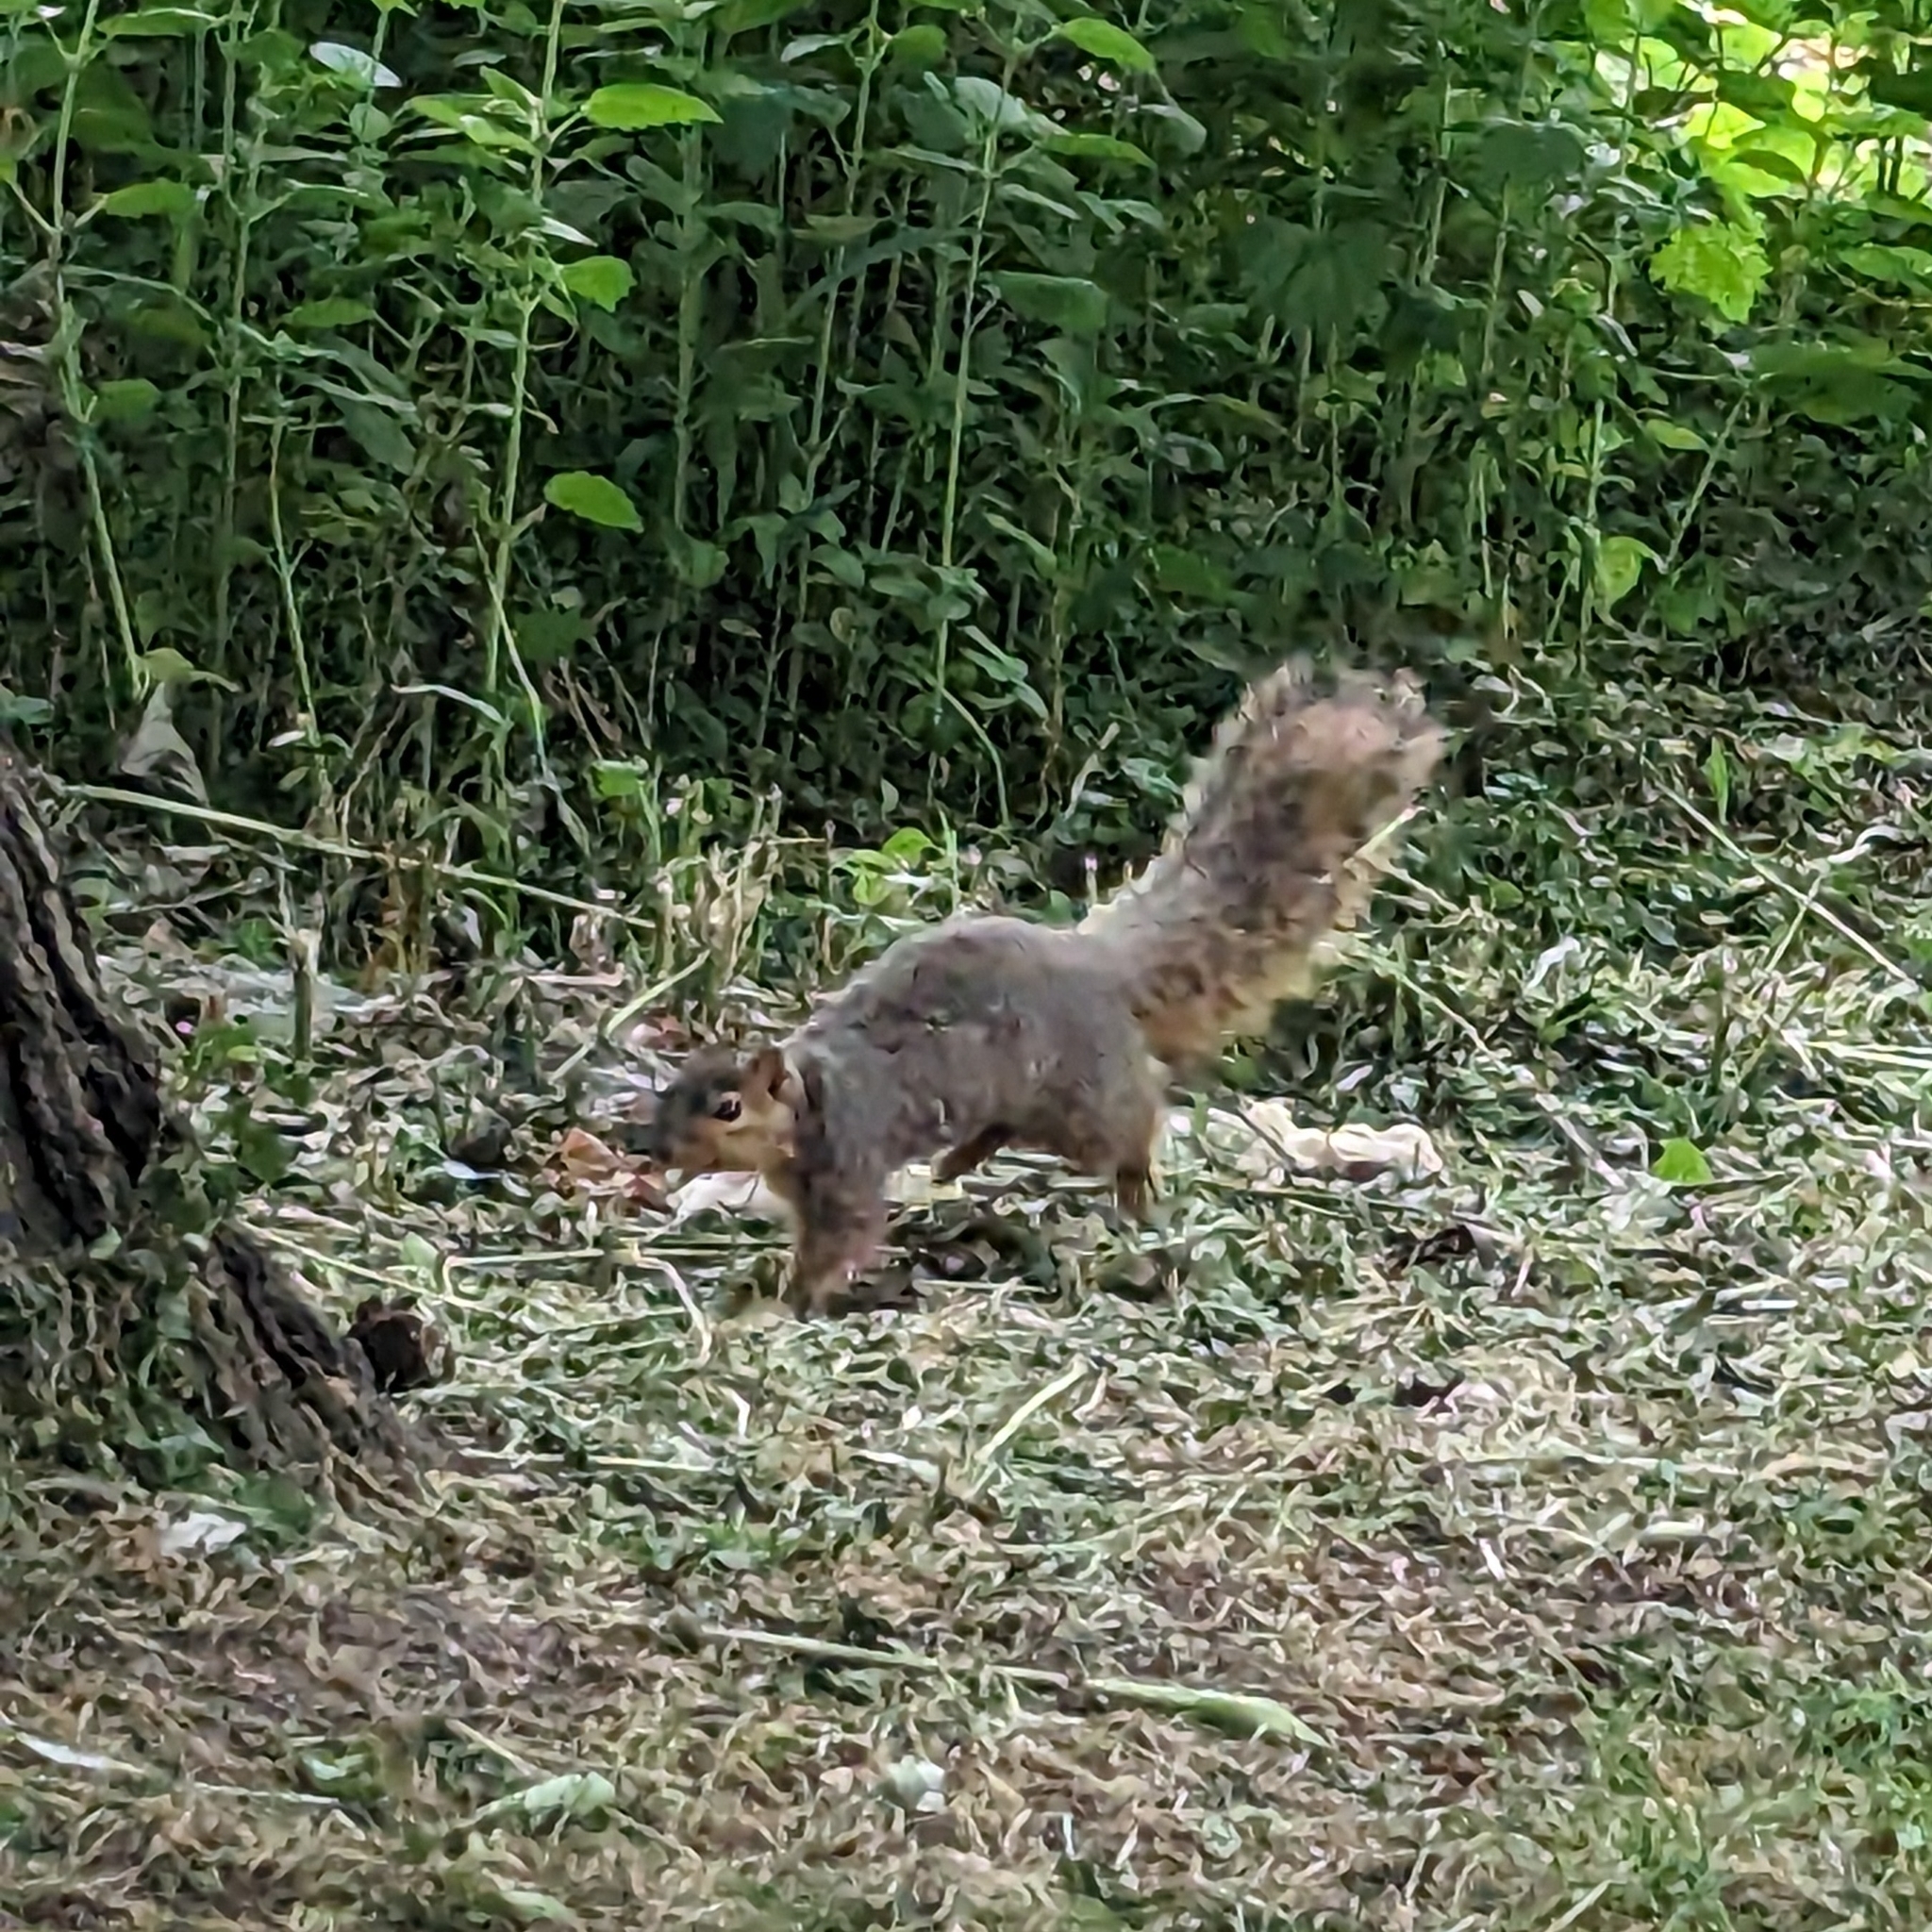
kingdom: Animalia
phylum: Chordata
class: Mammalia
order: Rodentia
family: Sciuridae
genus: Sciurus
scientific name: Sciurus niger
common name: Fox squirrel
